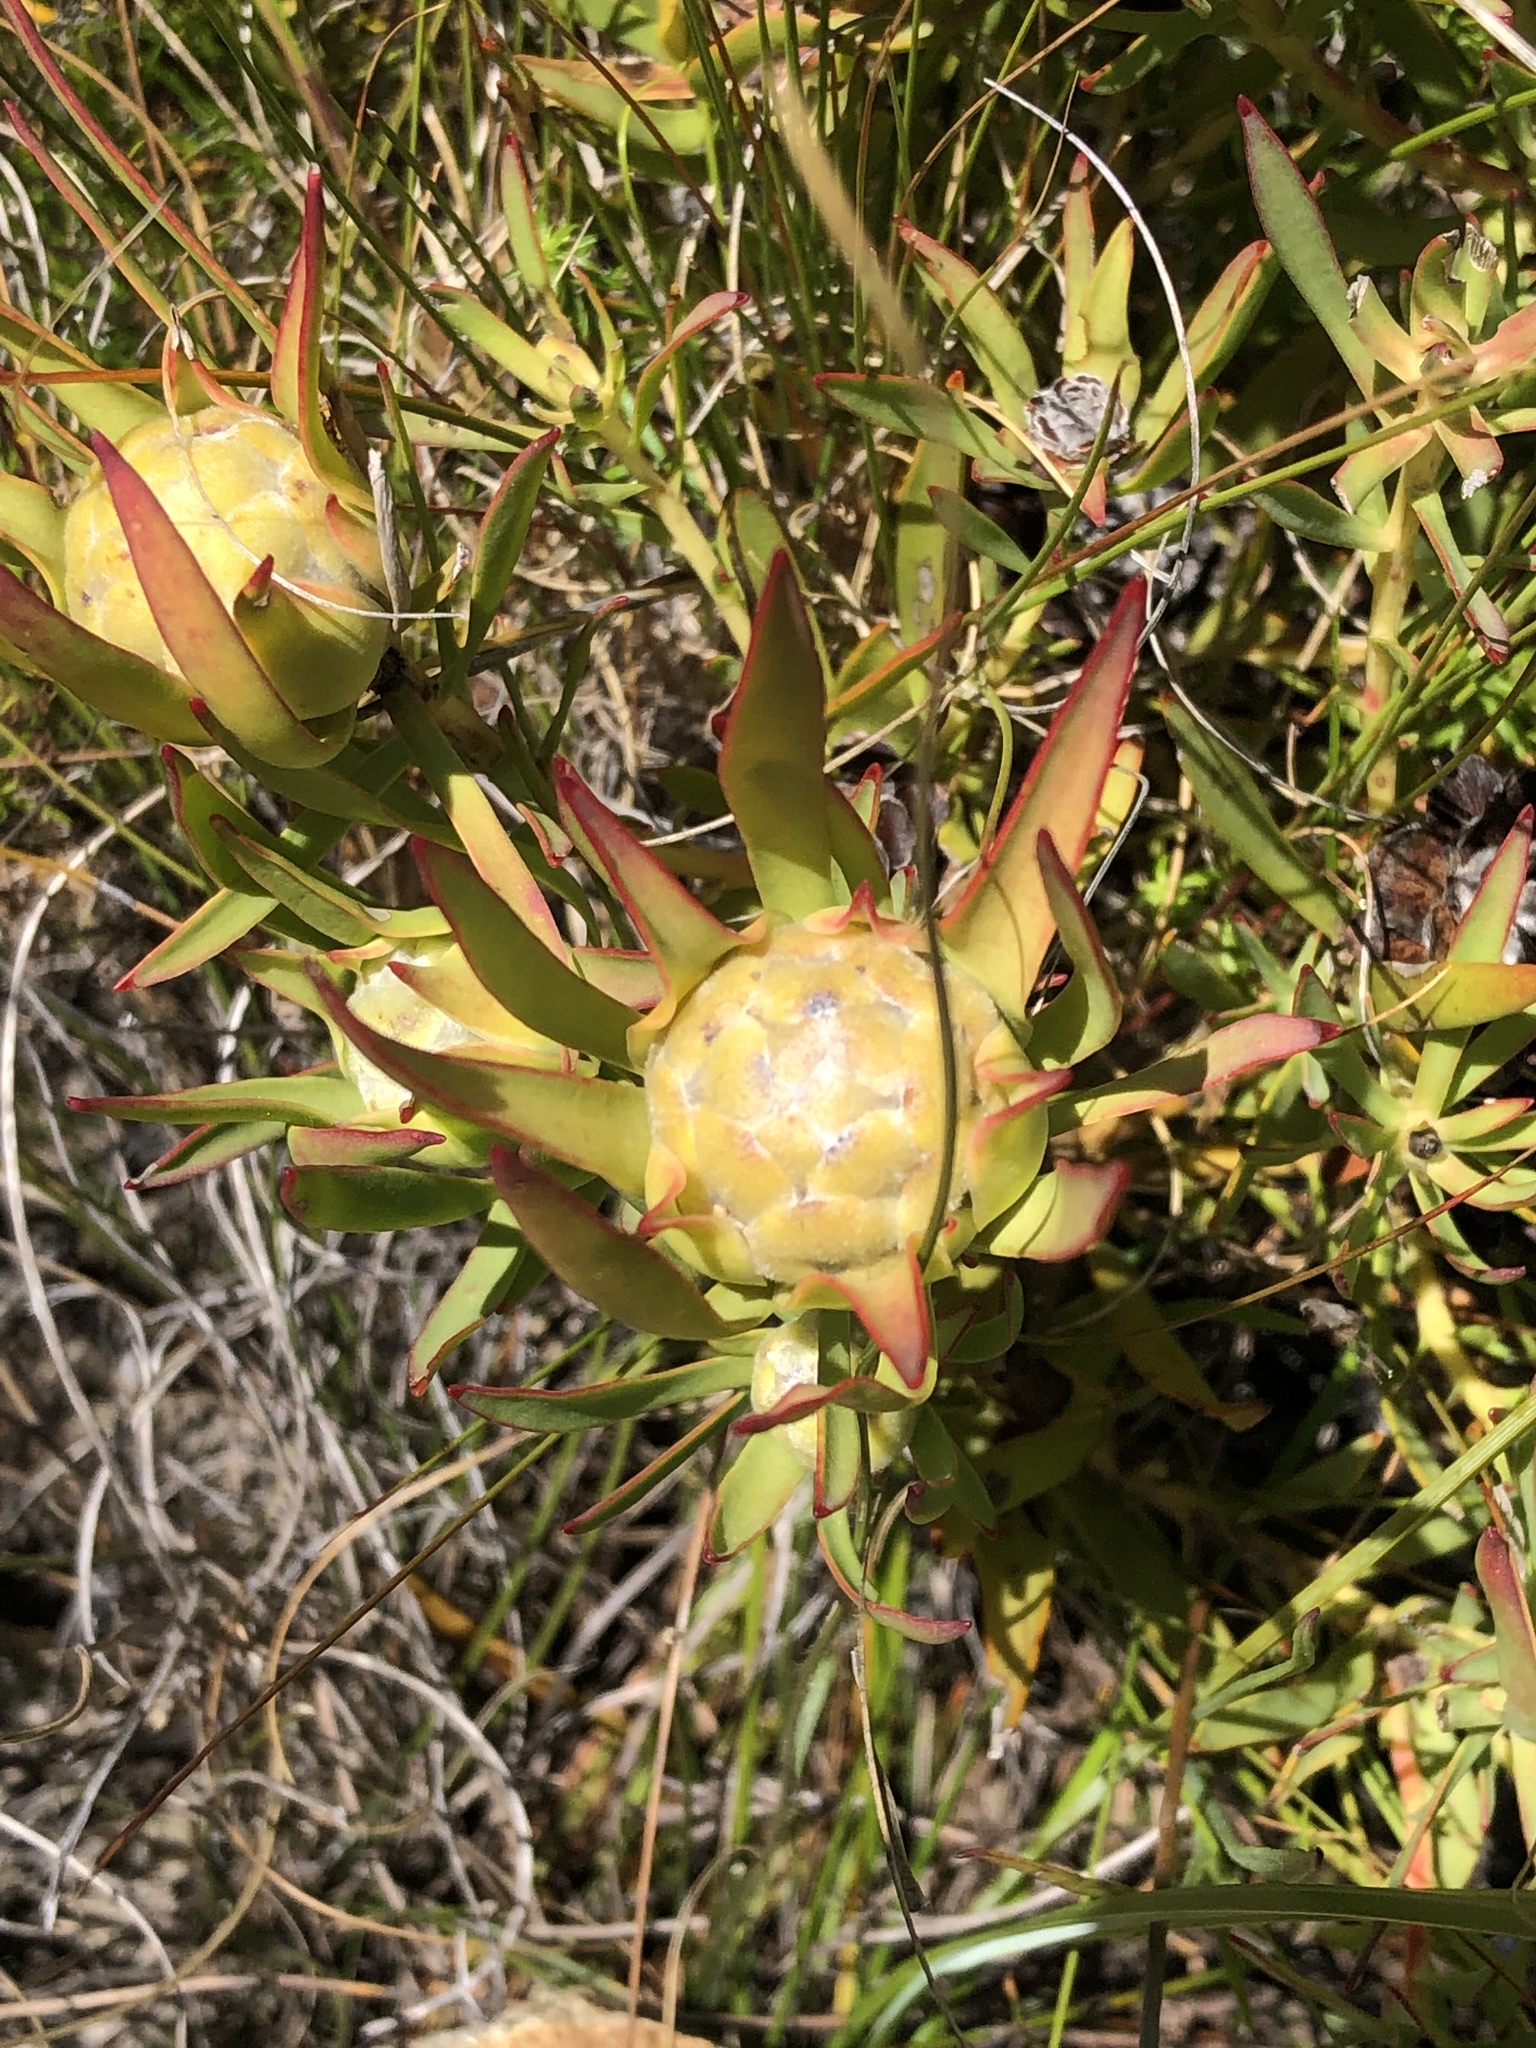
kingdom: Plantae
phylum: Tracheophyta
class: Magnoliopsida
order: Proteales
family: Proteaceae
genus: Leucadendron
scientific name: Leucadendron salignum
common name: Common sunshine conebush
